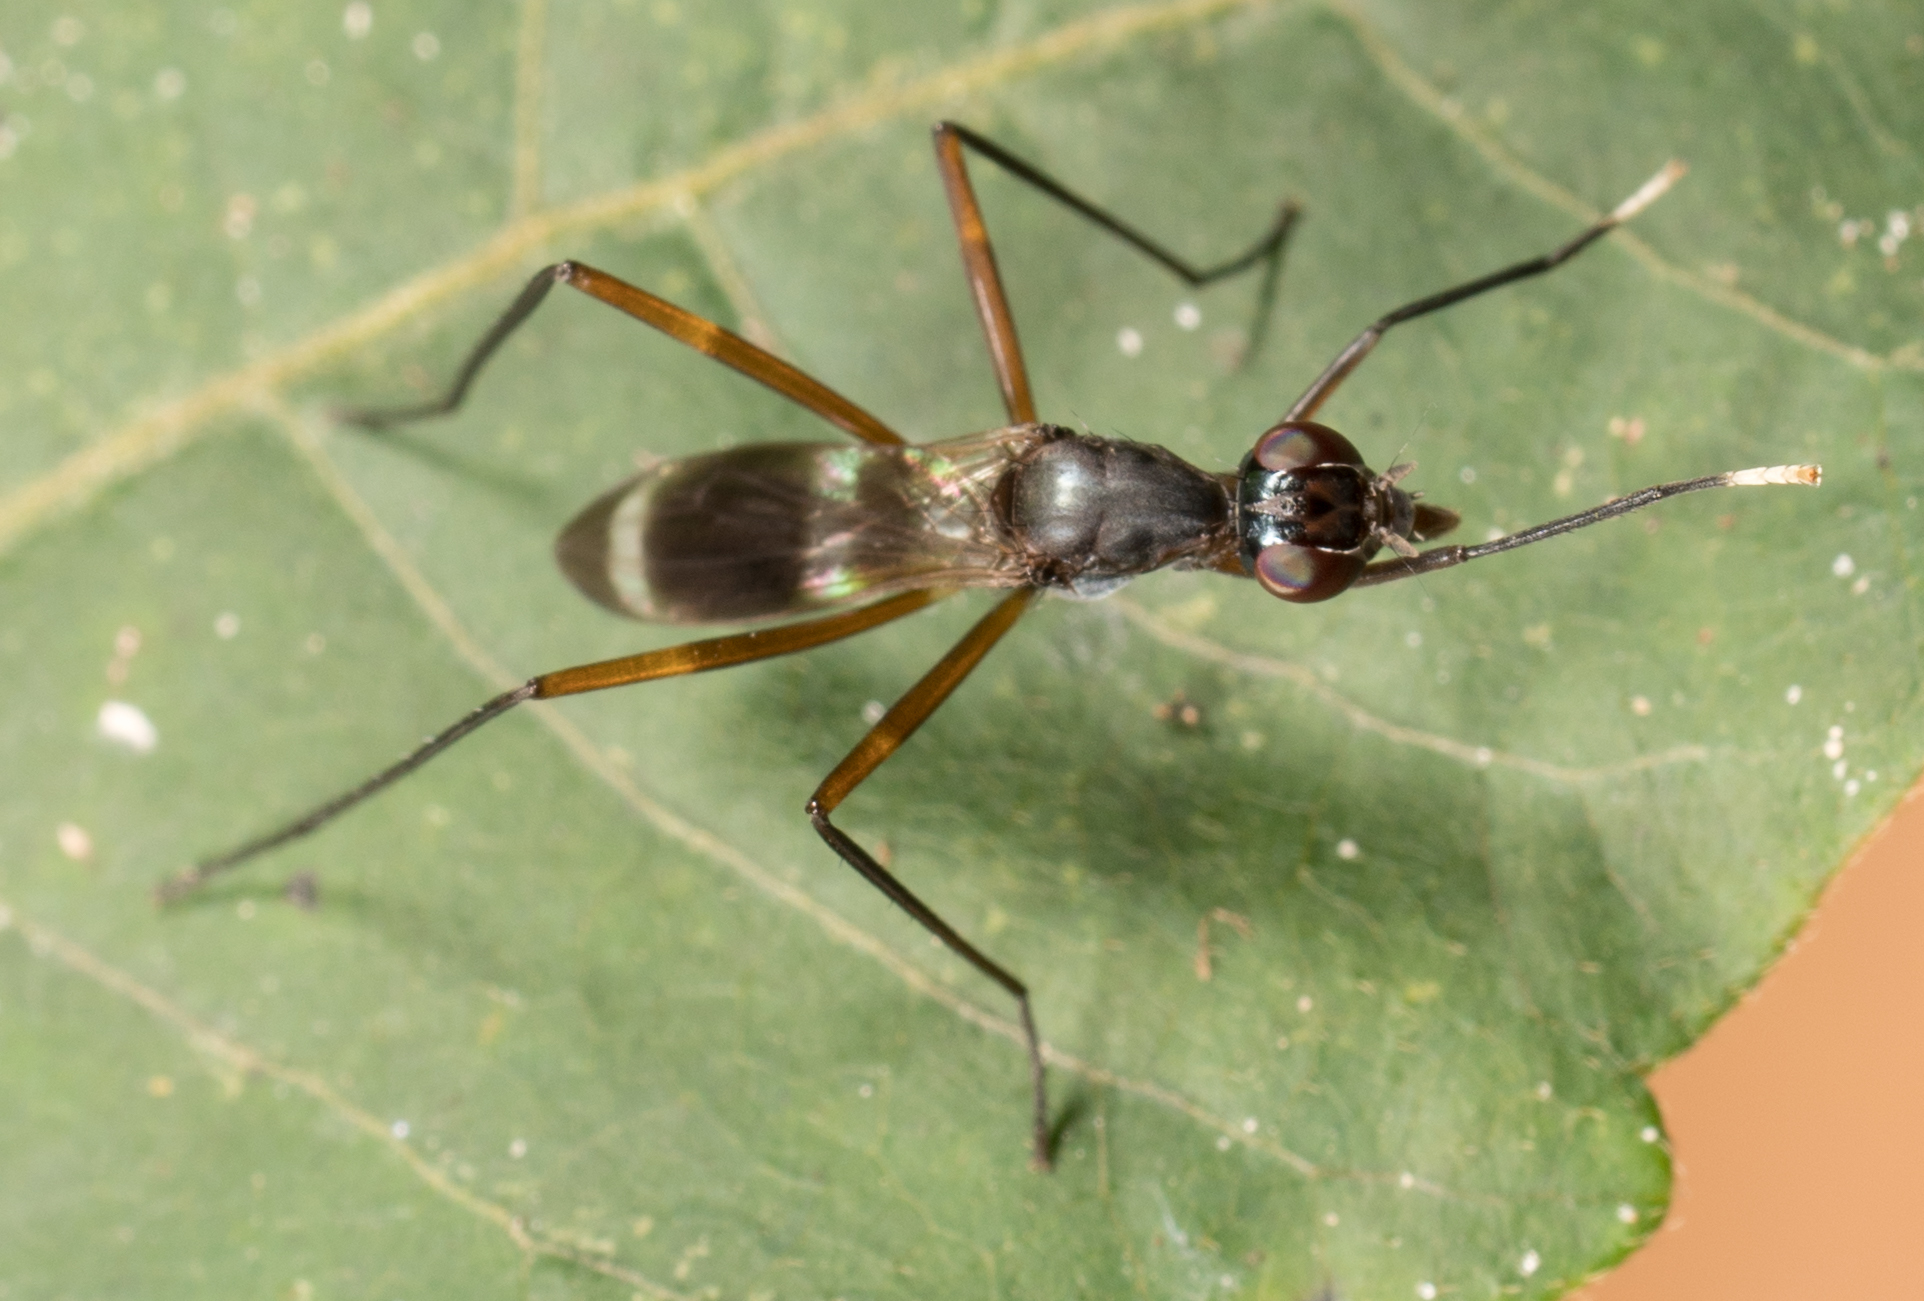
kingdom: Animalia
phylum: Arthropoda
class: Insecta
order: Diptera
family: Micropezidae
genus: Taeniaptera
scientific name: Taeniaptera trivittata
